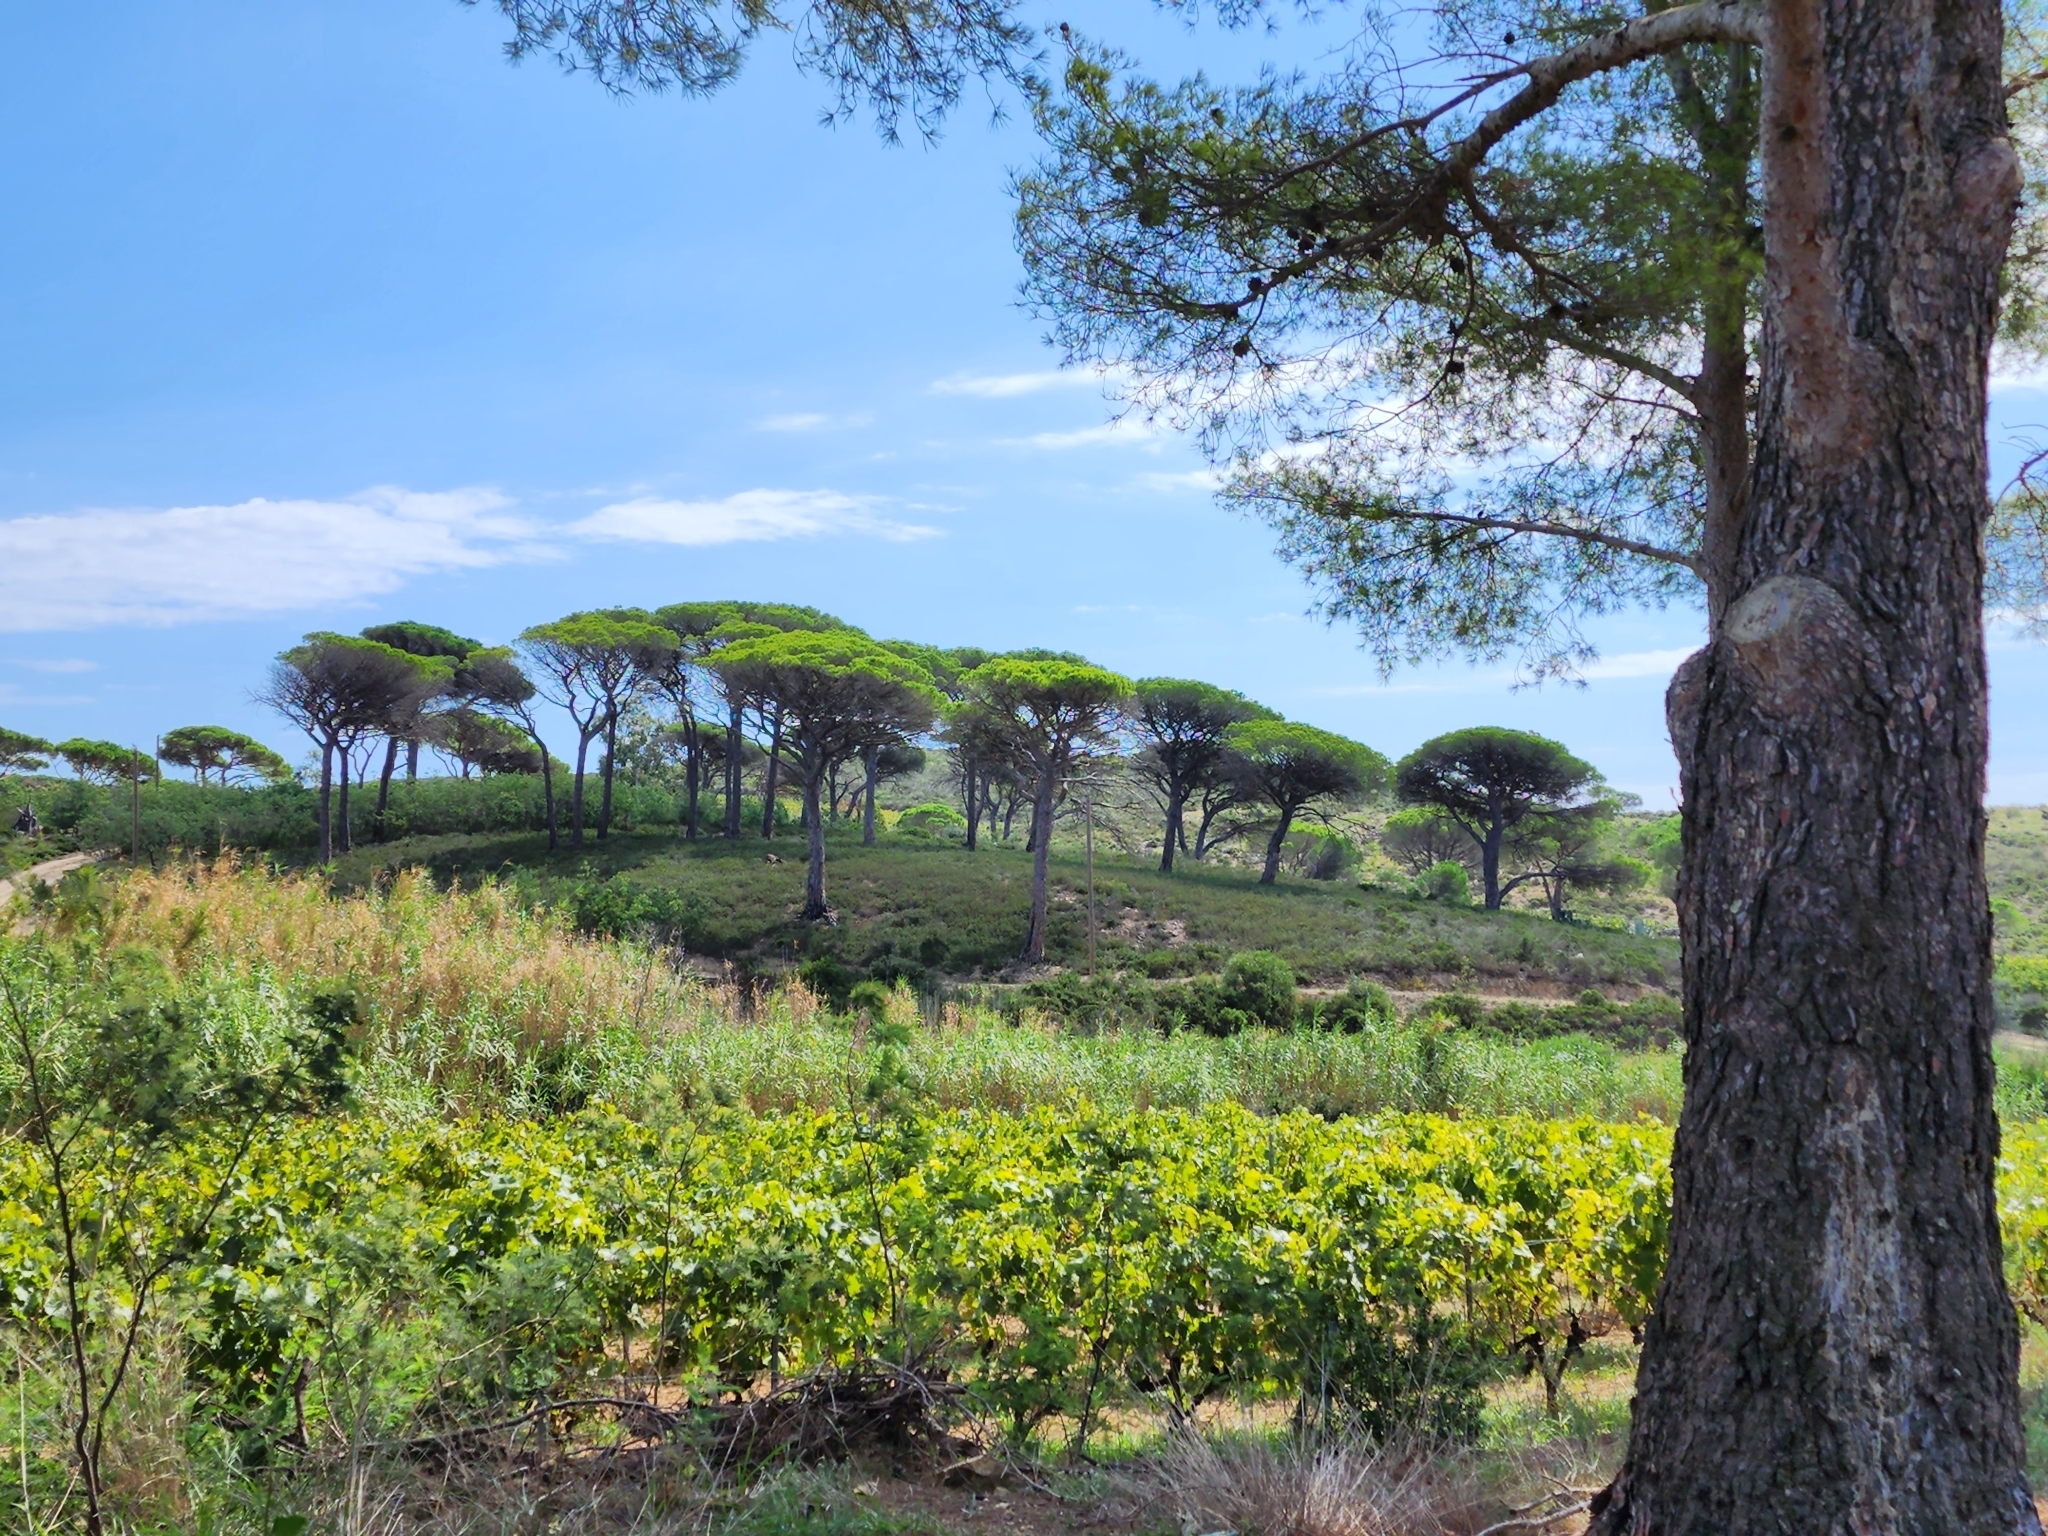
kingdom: Plantae
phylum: Tracheophyta
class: Pinopsida
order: Pinales
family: Pinaceae
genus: Pinus
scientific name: Pinus pinea
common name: Italian stone pine
